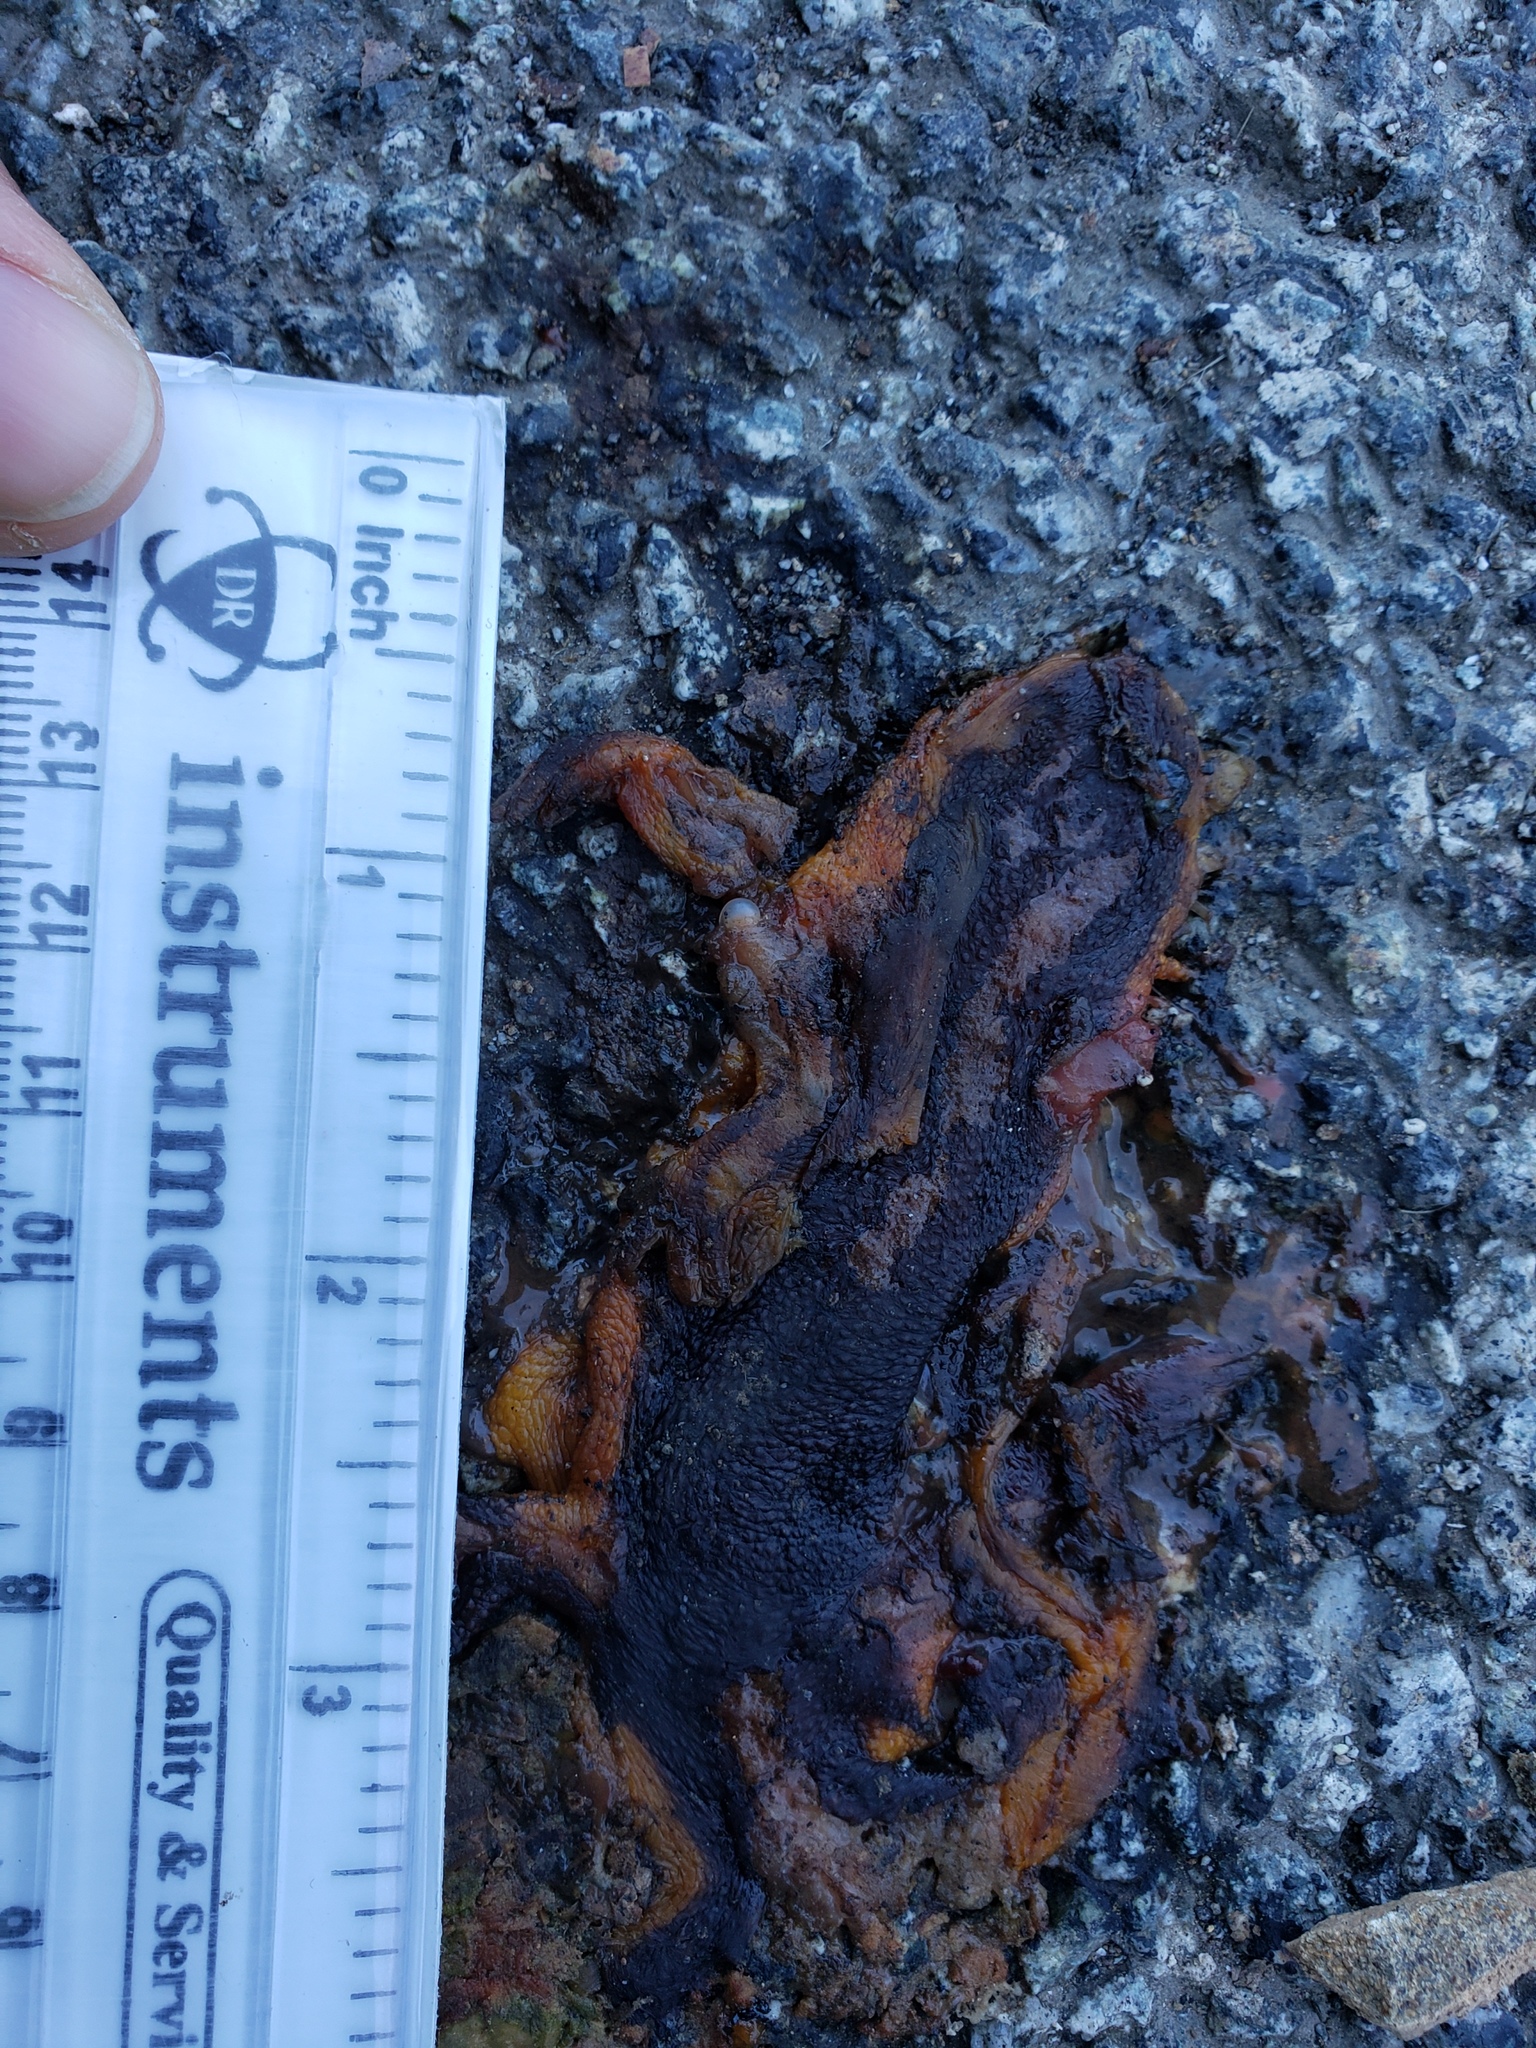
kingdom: Animalia
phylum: Chordata
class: Amphibia
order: Caudata
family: Salamandridae
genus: Taricha
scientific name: Taricha
